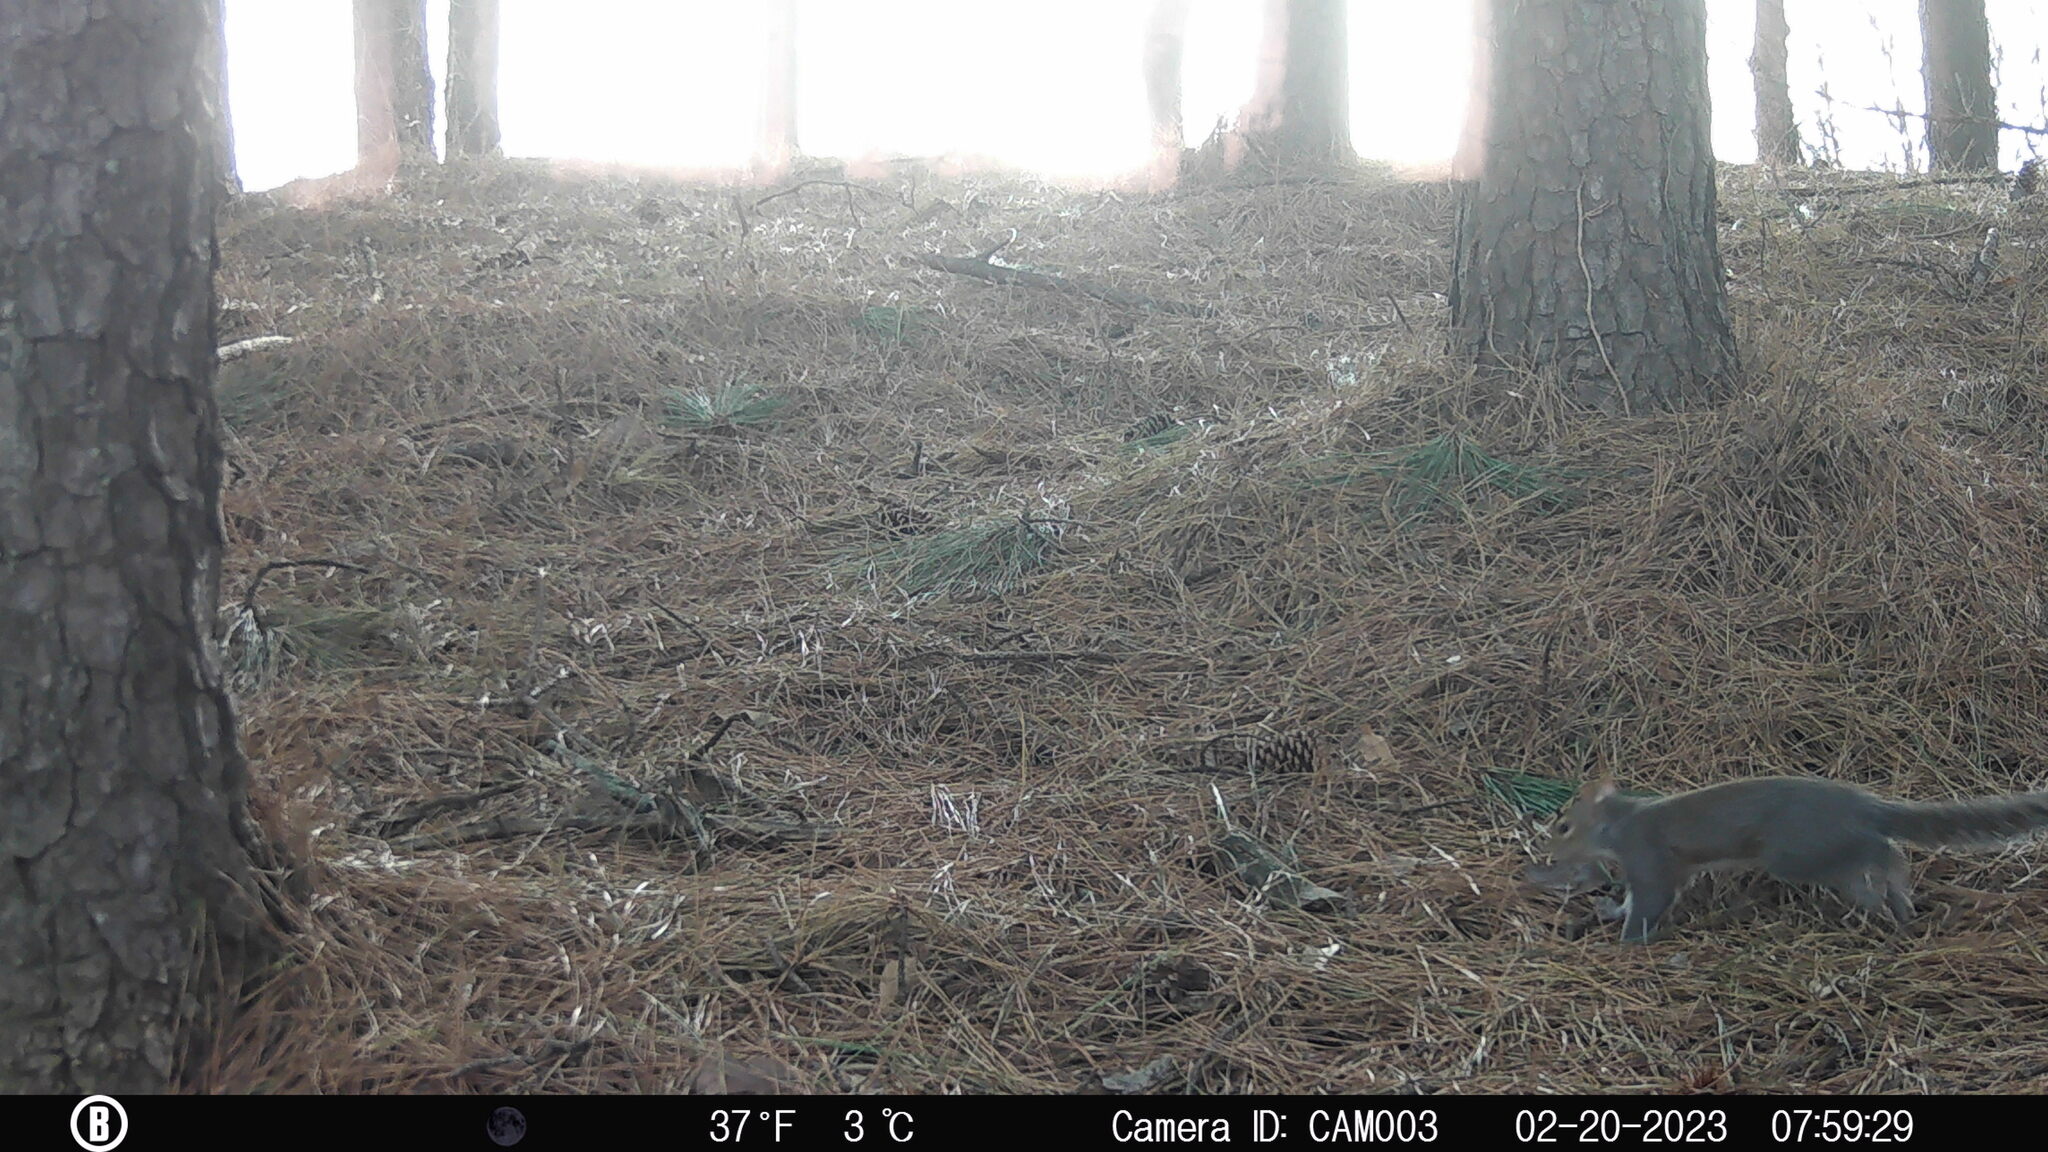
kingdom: Animalia
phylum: Chordata
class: Mammalia
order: Rodentia
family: Sciuridae
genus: Sciurus
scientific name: Sciurus carolinensis
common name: Eastern gray squirrel
